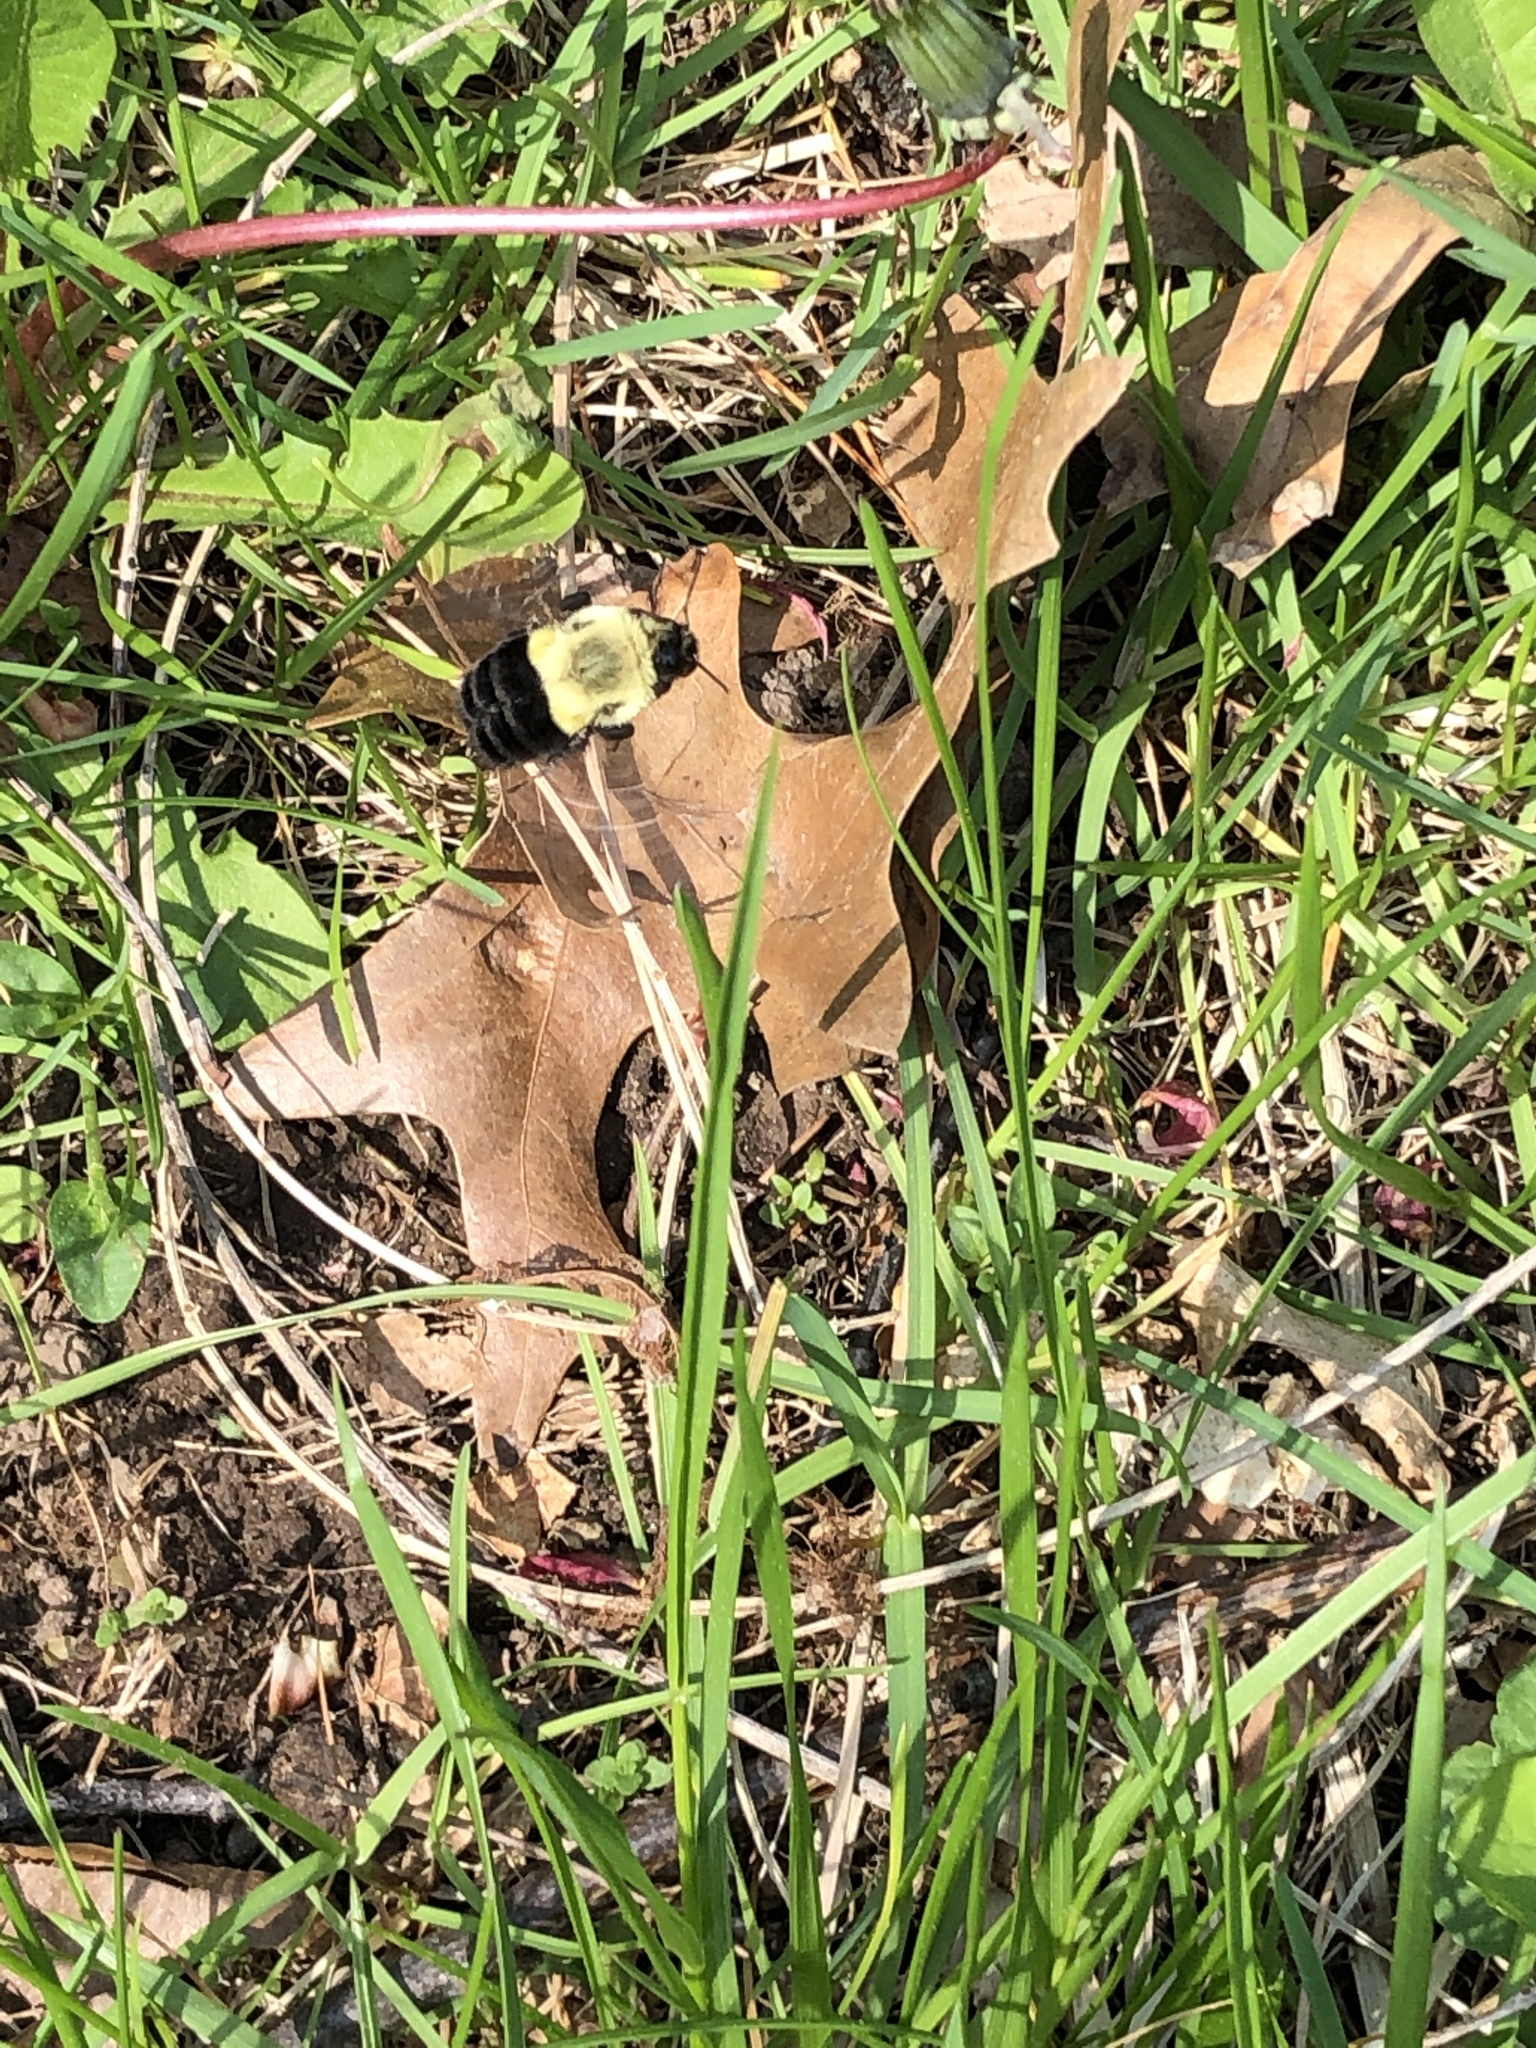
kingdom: Animalia
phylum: Arthropoda
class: Insecta
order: Hymenoptera
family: Apidae
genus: Bombus
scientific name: Bombus impatiens
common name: Common eastern bumble bee
